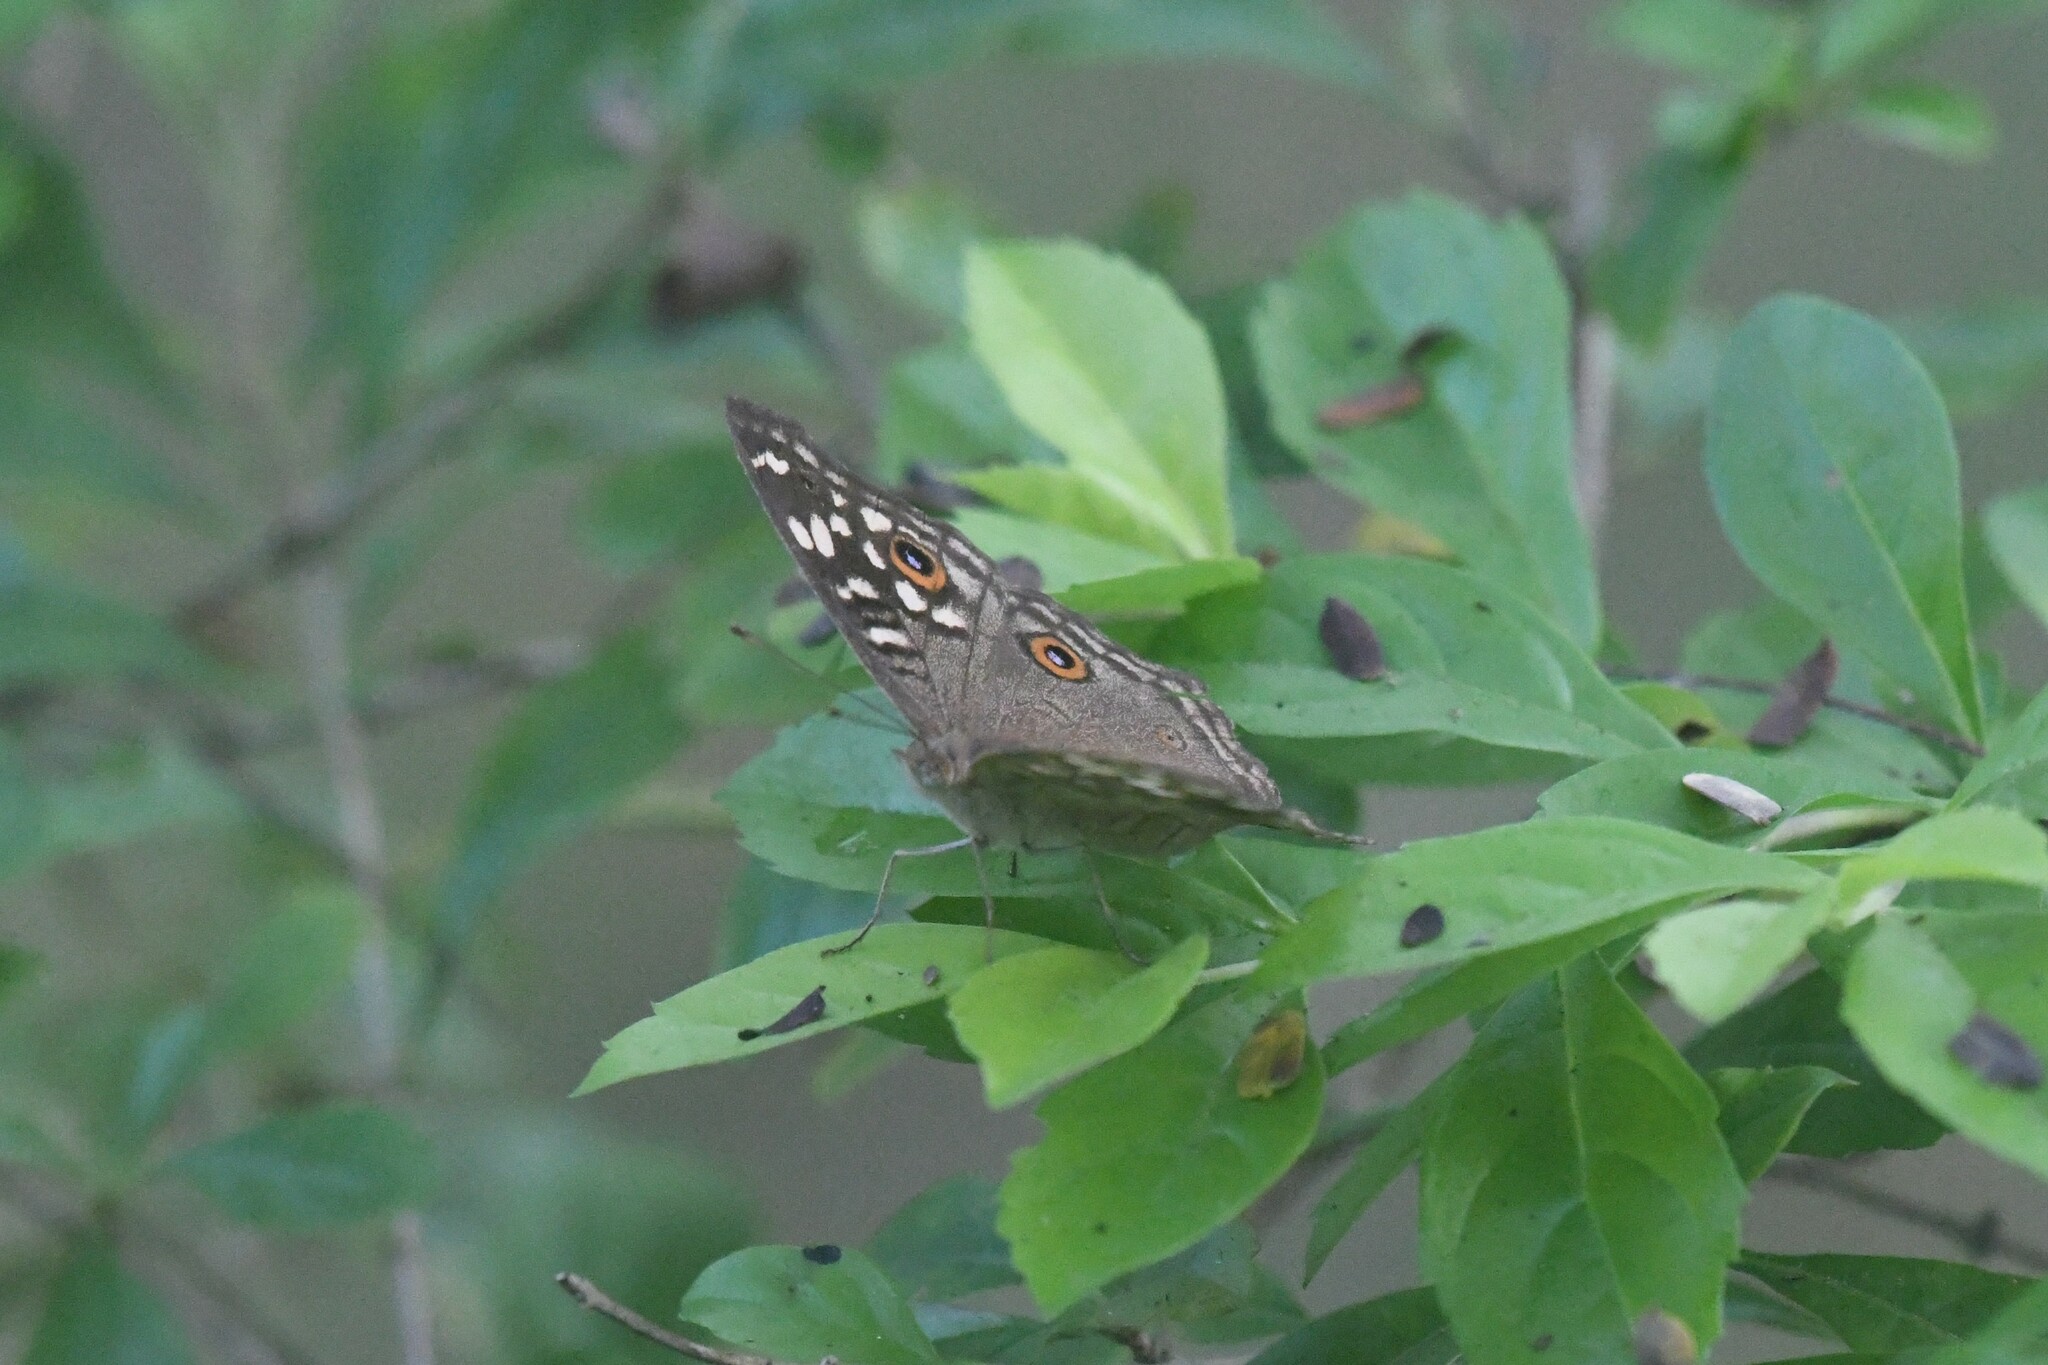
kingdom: Animalia
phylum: Arthropoda
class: Insecta
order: Lepidoptera
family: Nymphalidae
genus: Junonia
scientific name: Junonia lemonias
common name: Lemon pansy
